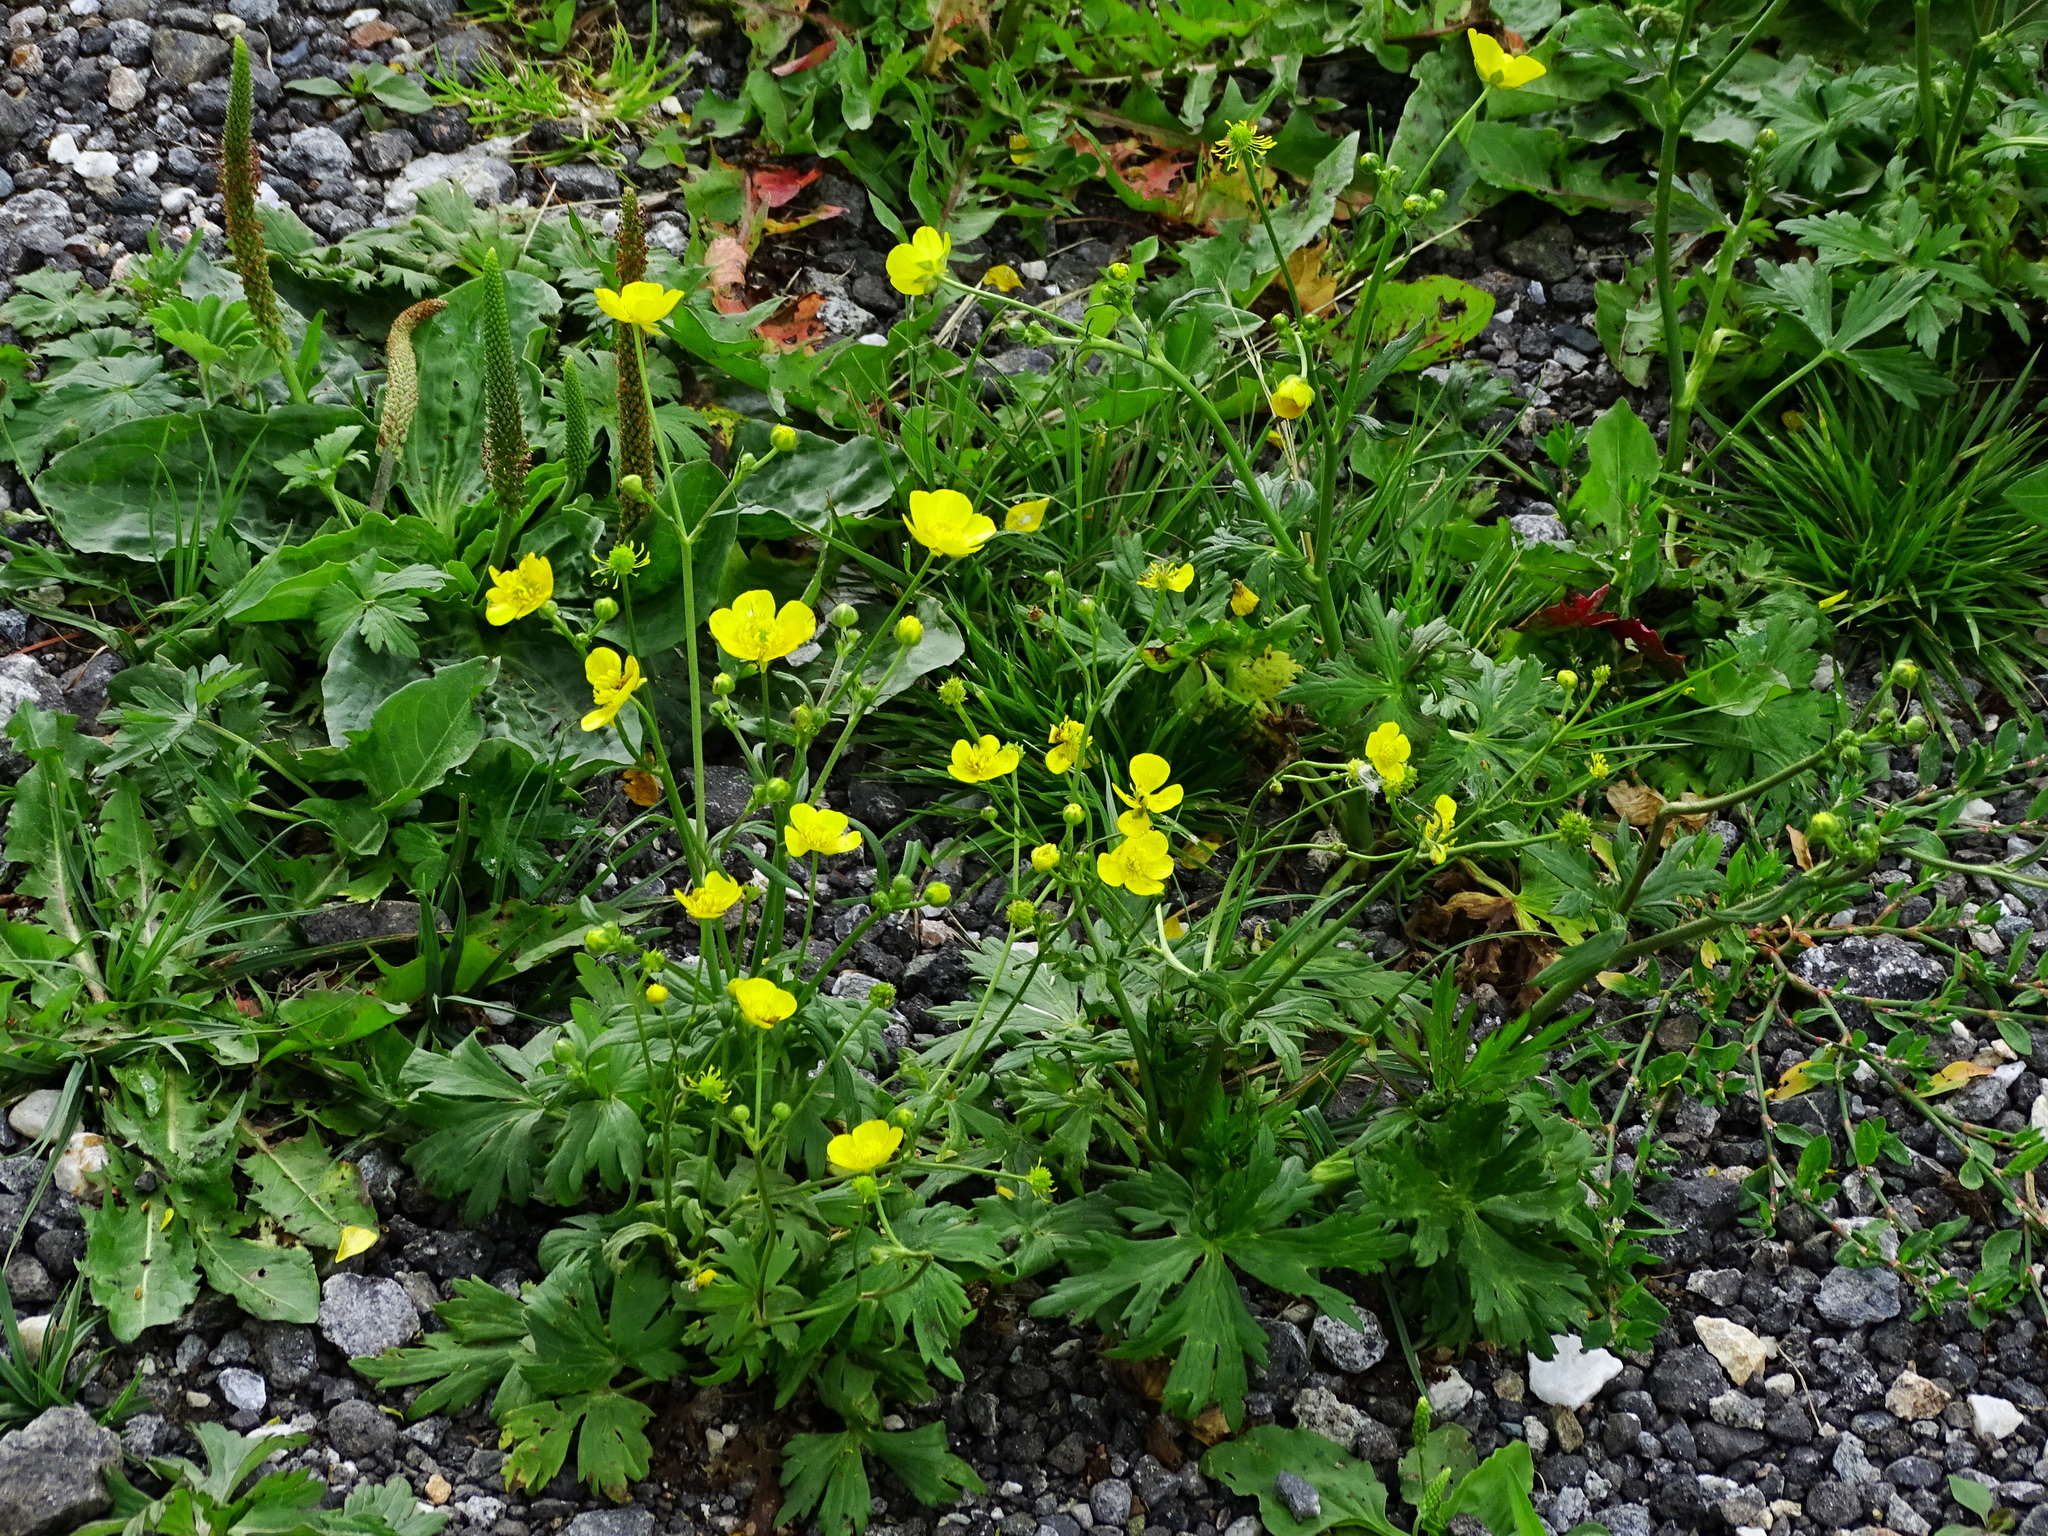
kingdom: Plantae
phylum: Tracheophyta
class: Magnoliopsida
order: Ranunculales
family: Ranunculaceae
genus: Ranunculus
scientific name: Ranunculus acris
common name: Meadow buttercup
